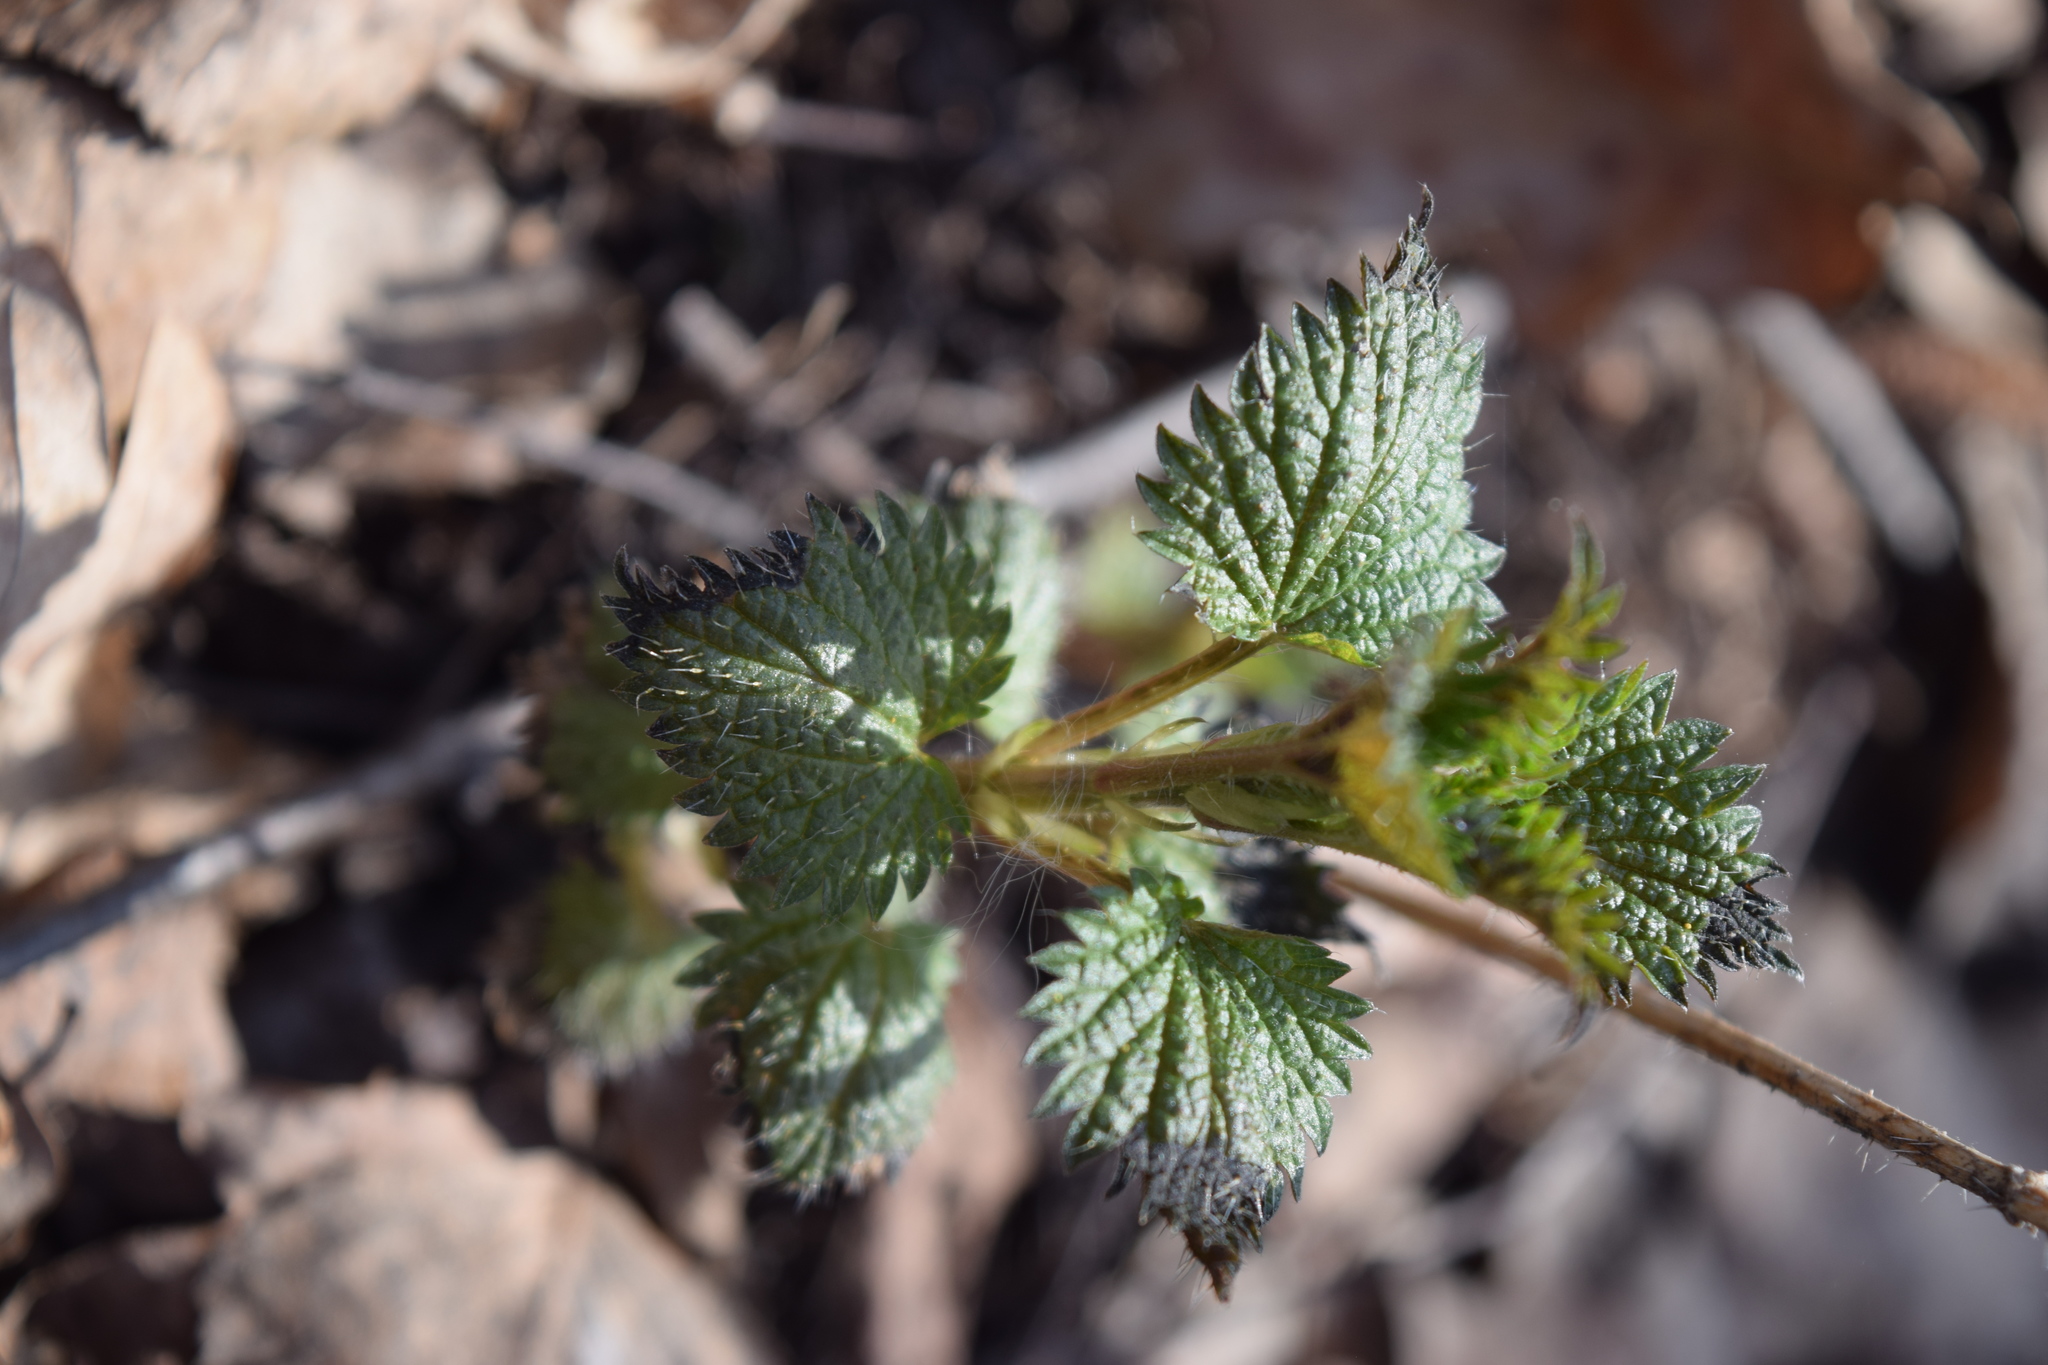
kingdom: Plantae
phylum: Tracheophyta
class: Magnoliopsida
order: Rosales
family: Urticaceae
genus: Urtica
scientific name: Urtica dioica
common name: Common nettle
